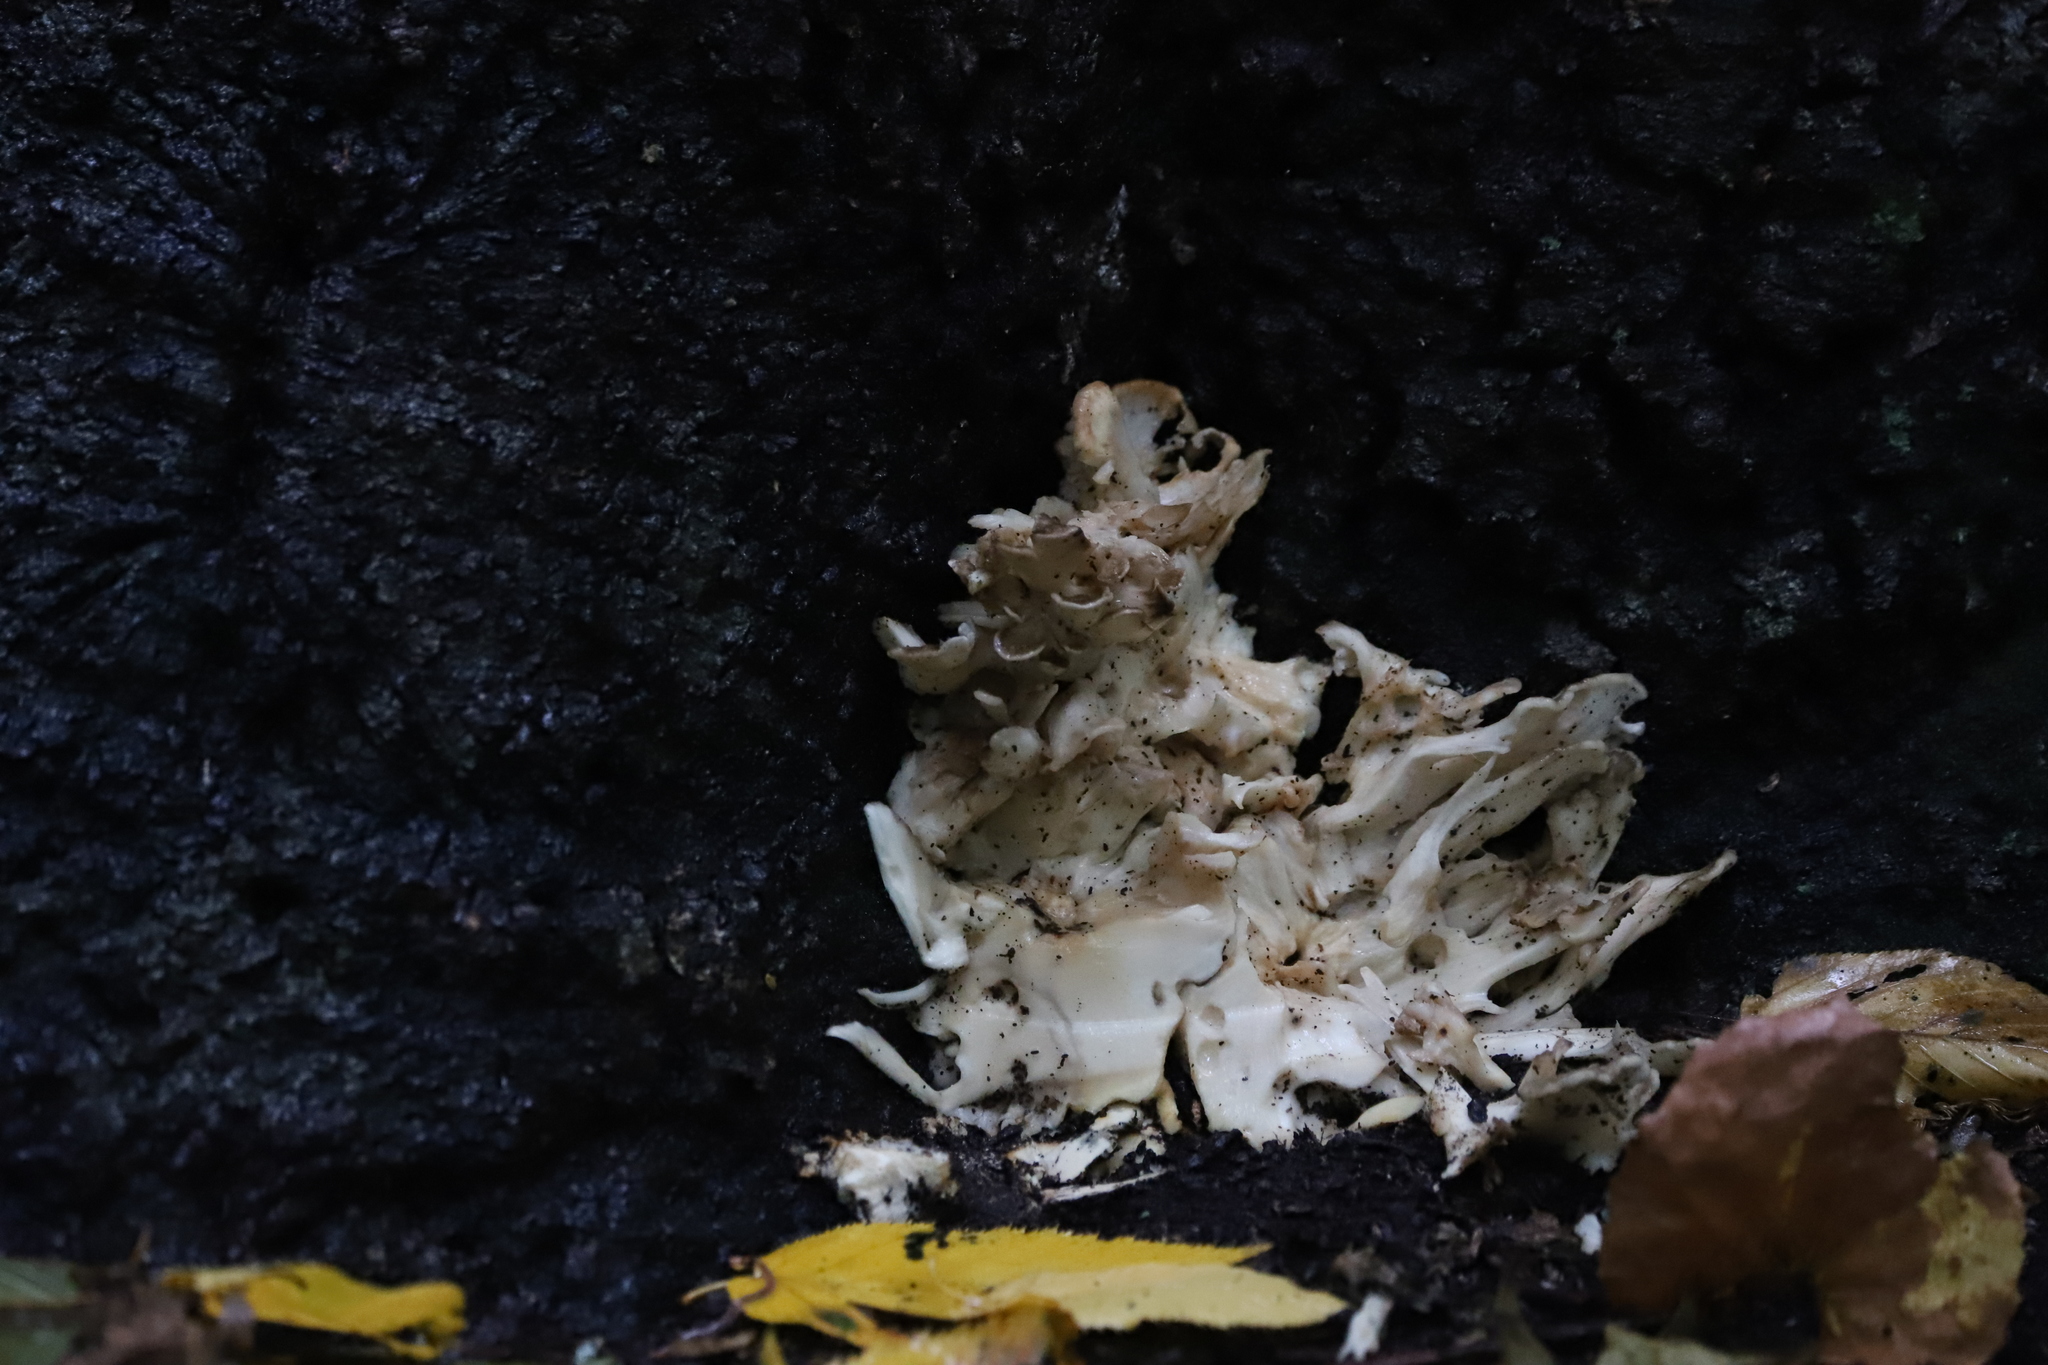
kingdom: Fungi
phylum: Basidiomycota
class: Agaricomycetes
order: Polyporales
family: Grifolaceae
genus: Grifola
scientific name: Grifola frondosa
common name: Hen of the woods
